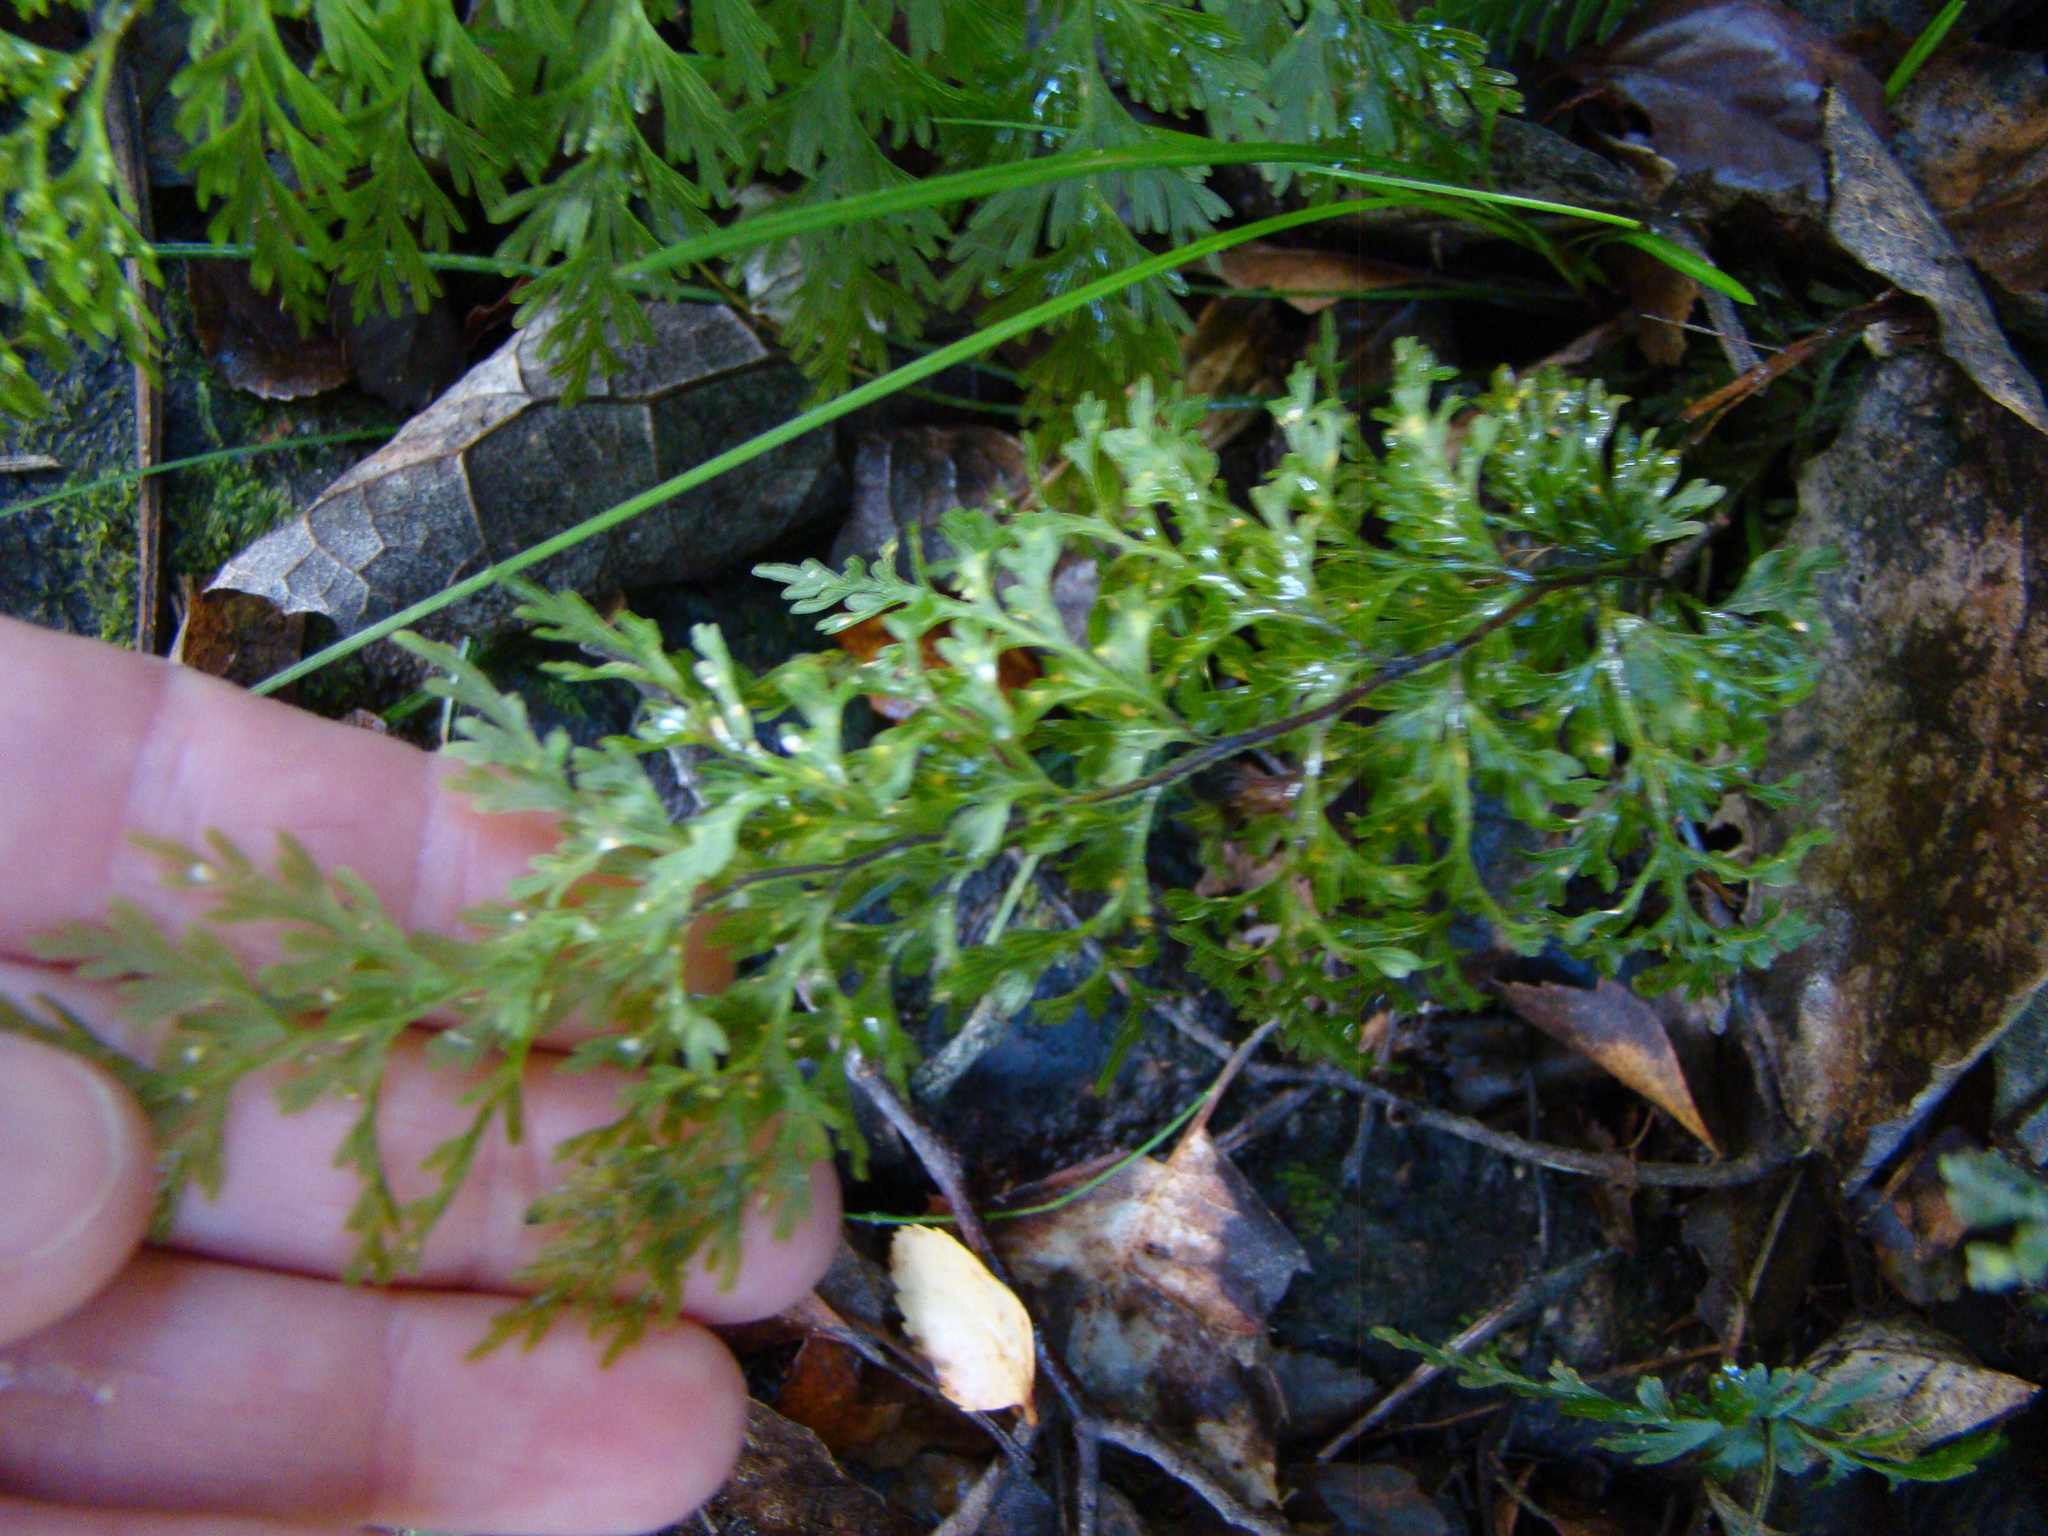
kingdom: Plantae
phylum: Tracheophyta
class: Polypodiopsida
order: Hymenophyllales
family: Hymenophyllaceae
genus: Hymenophyllum
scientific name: Hymenophyllum demissum
